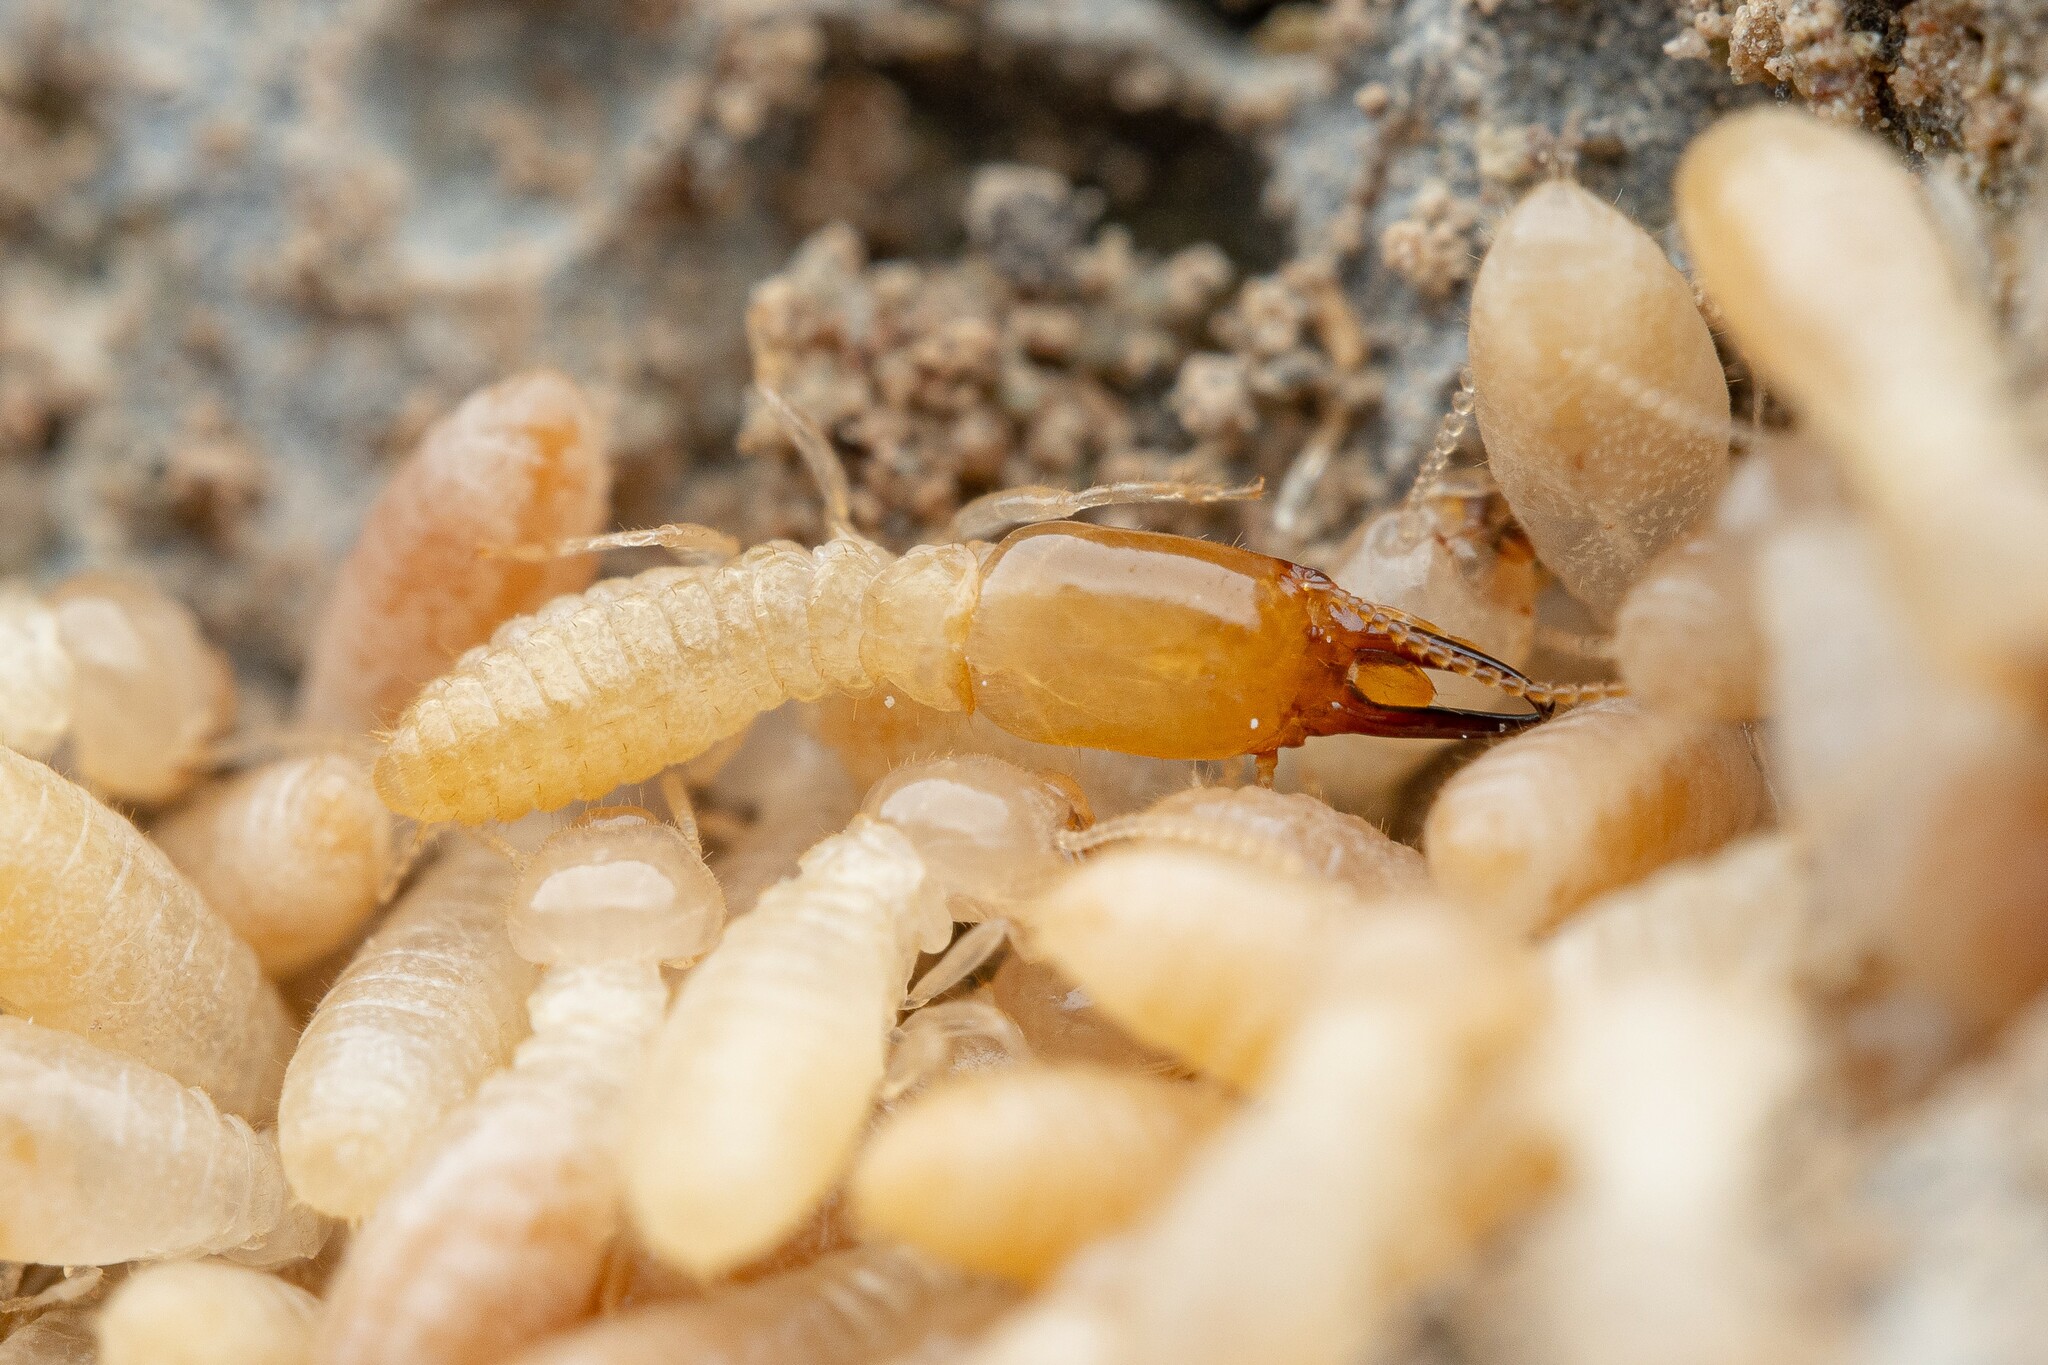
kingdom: Animalia
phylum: Arthropoda
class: Insecta
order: Blattodea
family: Rhinotermitidae
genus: Heterotermes
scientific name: Heterotermes aureus
